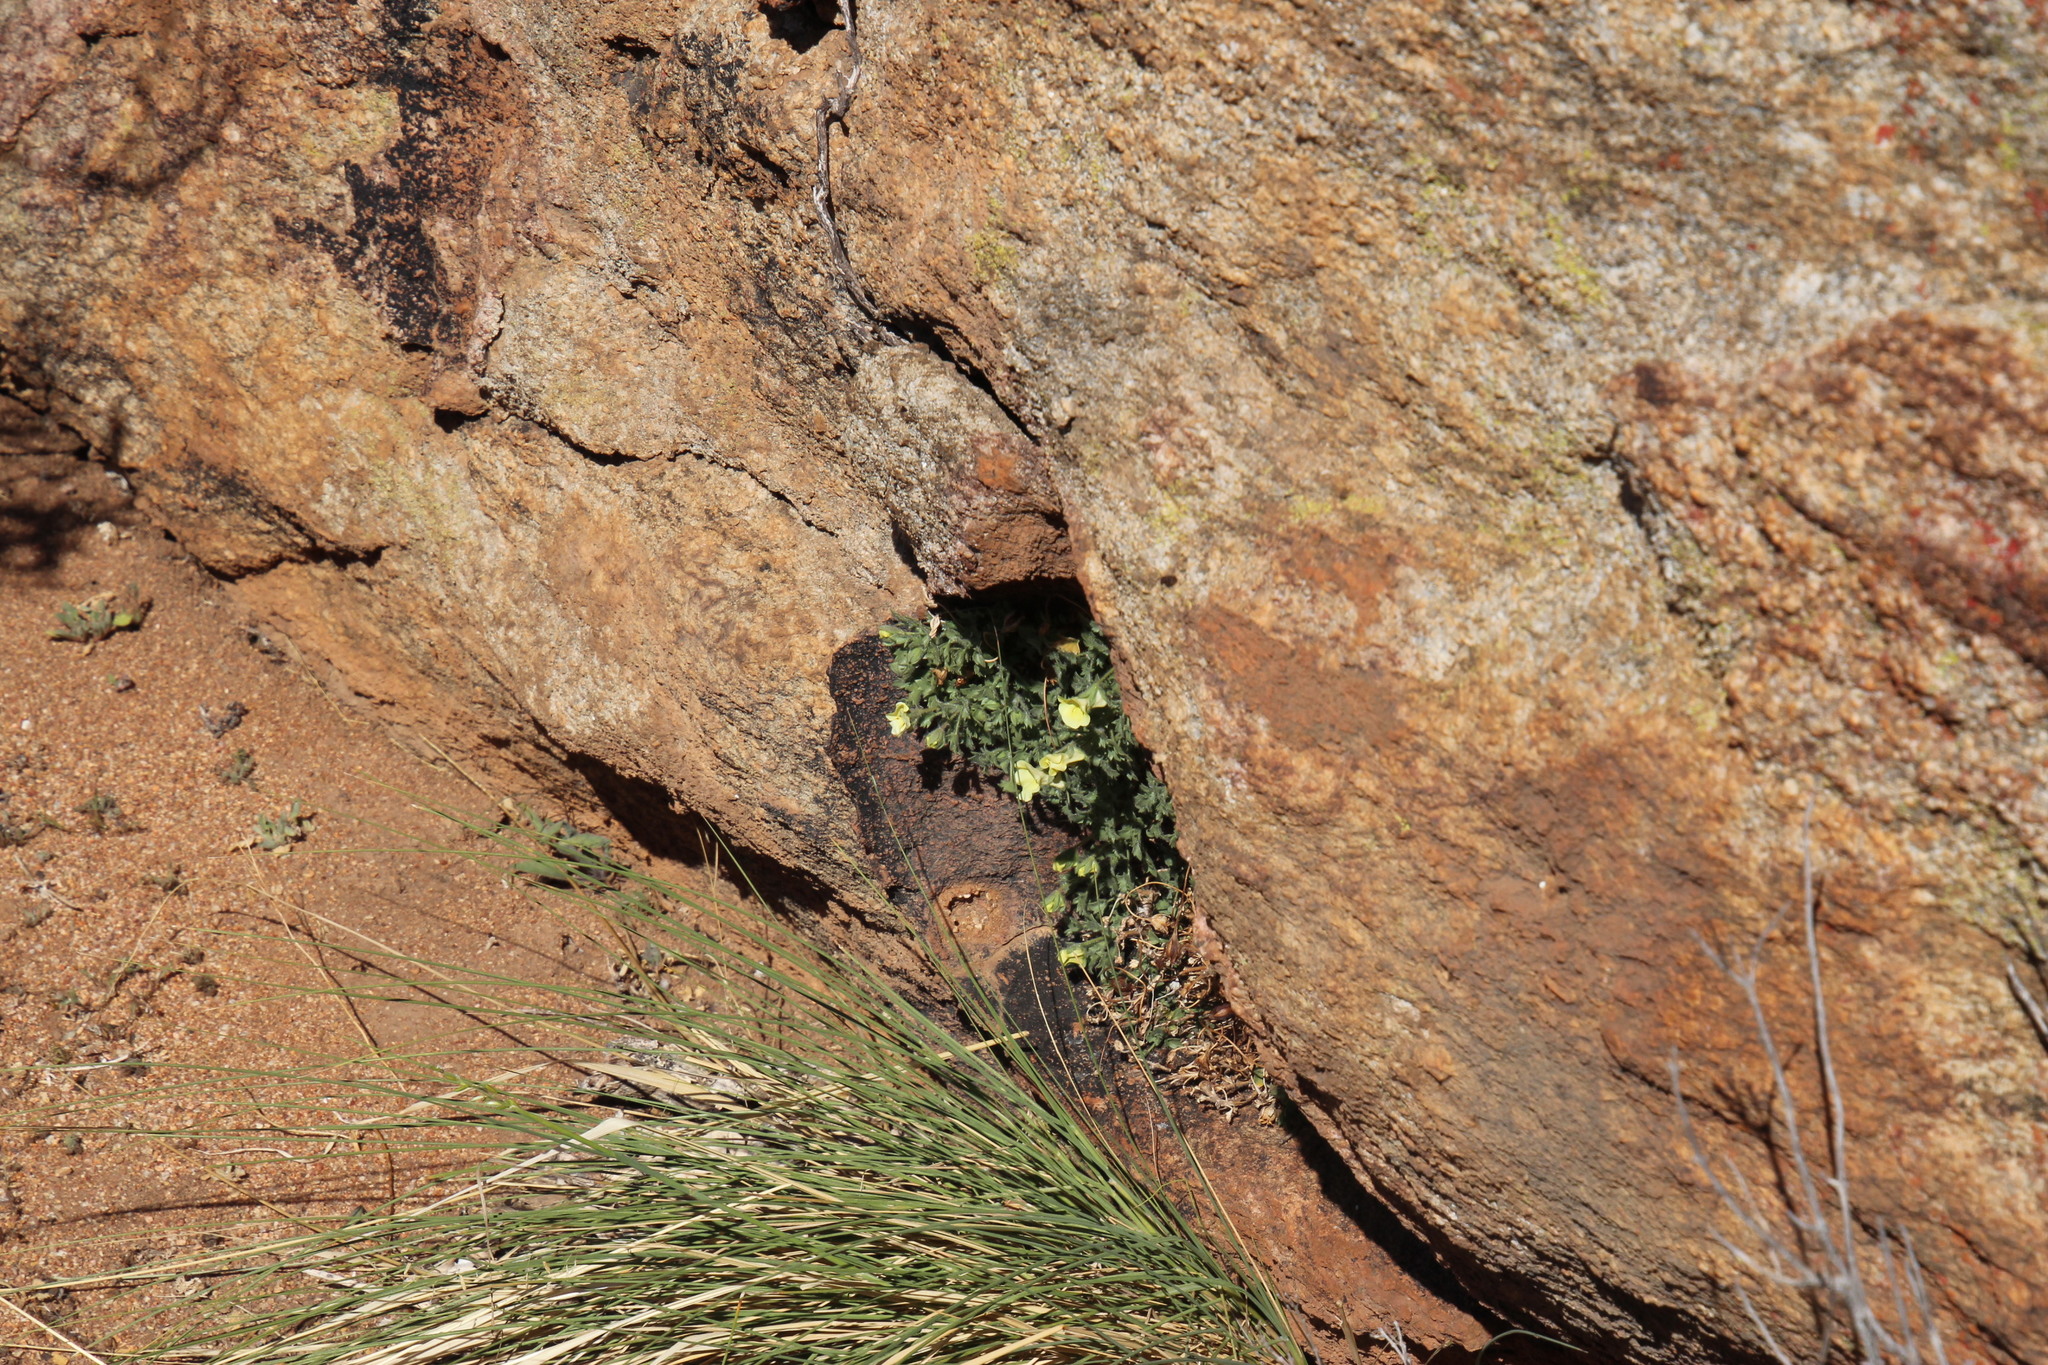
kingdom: Plantae
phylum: Tracheophyta
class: Magnoliopsida
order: Lamiales
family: Scrophulariaceae
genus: Colpias
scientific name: Colpias mollis
